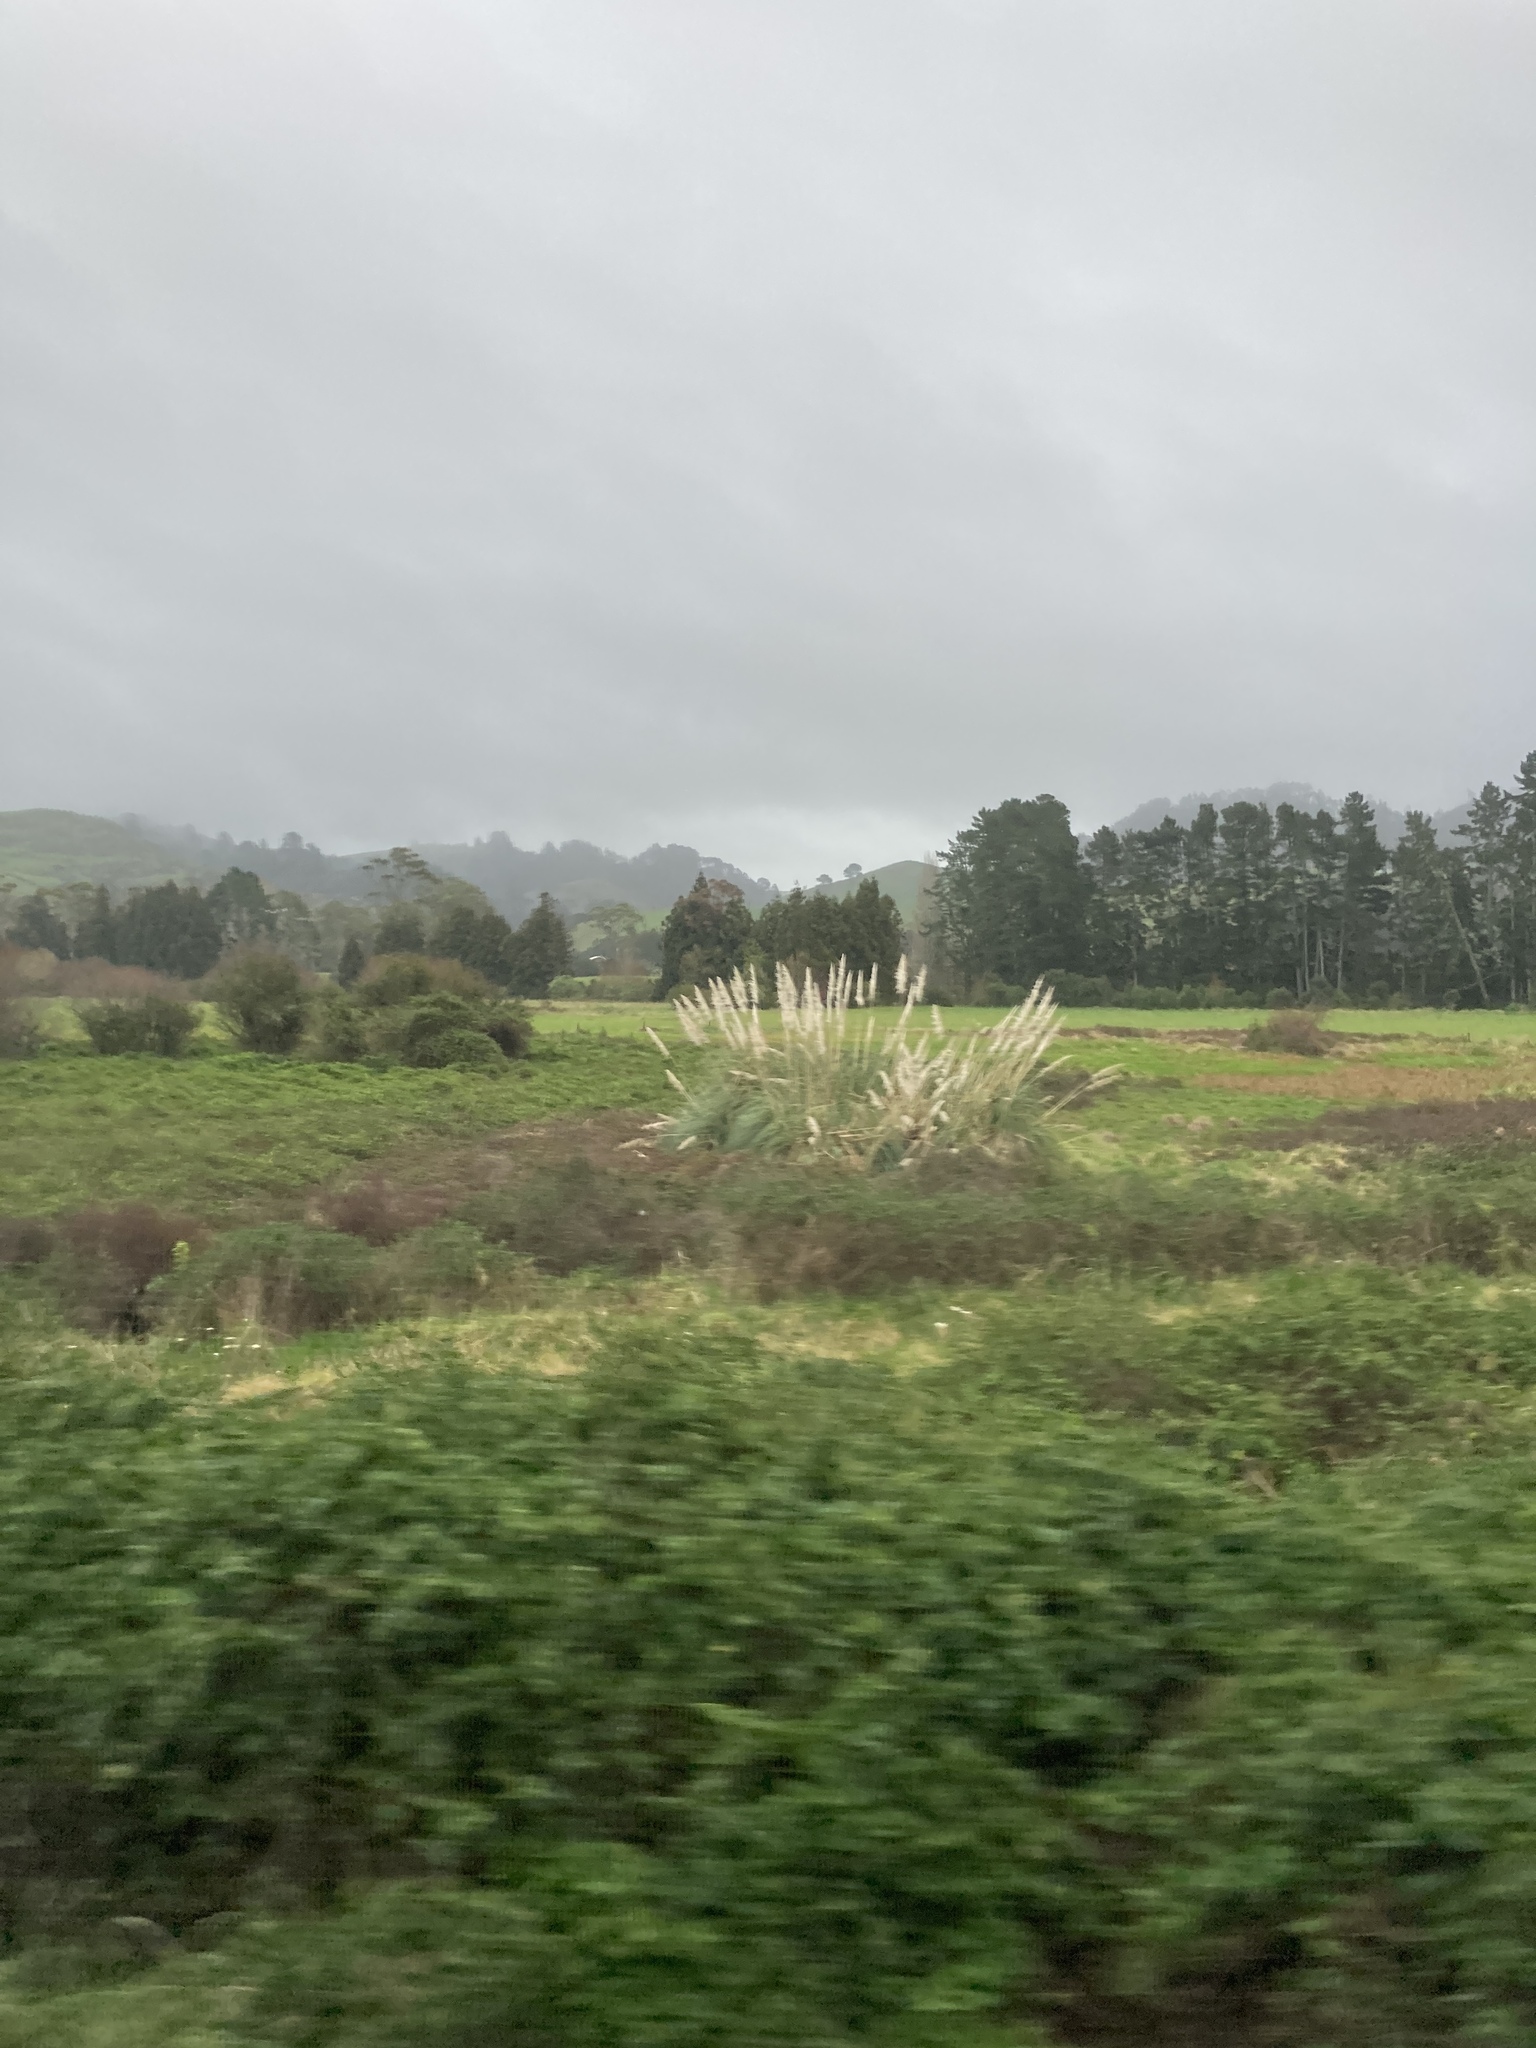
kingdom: Plantae
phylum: Tracheophyta
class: Liliopsida
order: Poales
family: Poaceae
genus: Cortaderia
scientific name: Cortaderia selloana
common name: Uruguayan pampas grass
